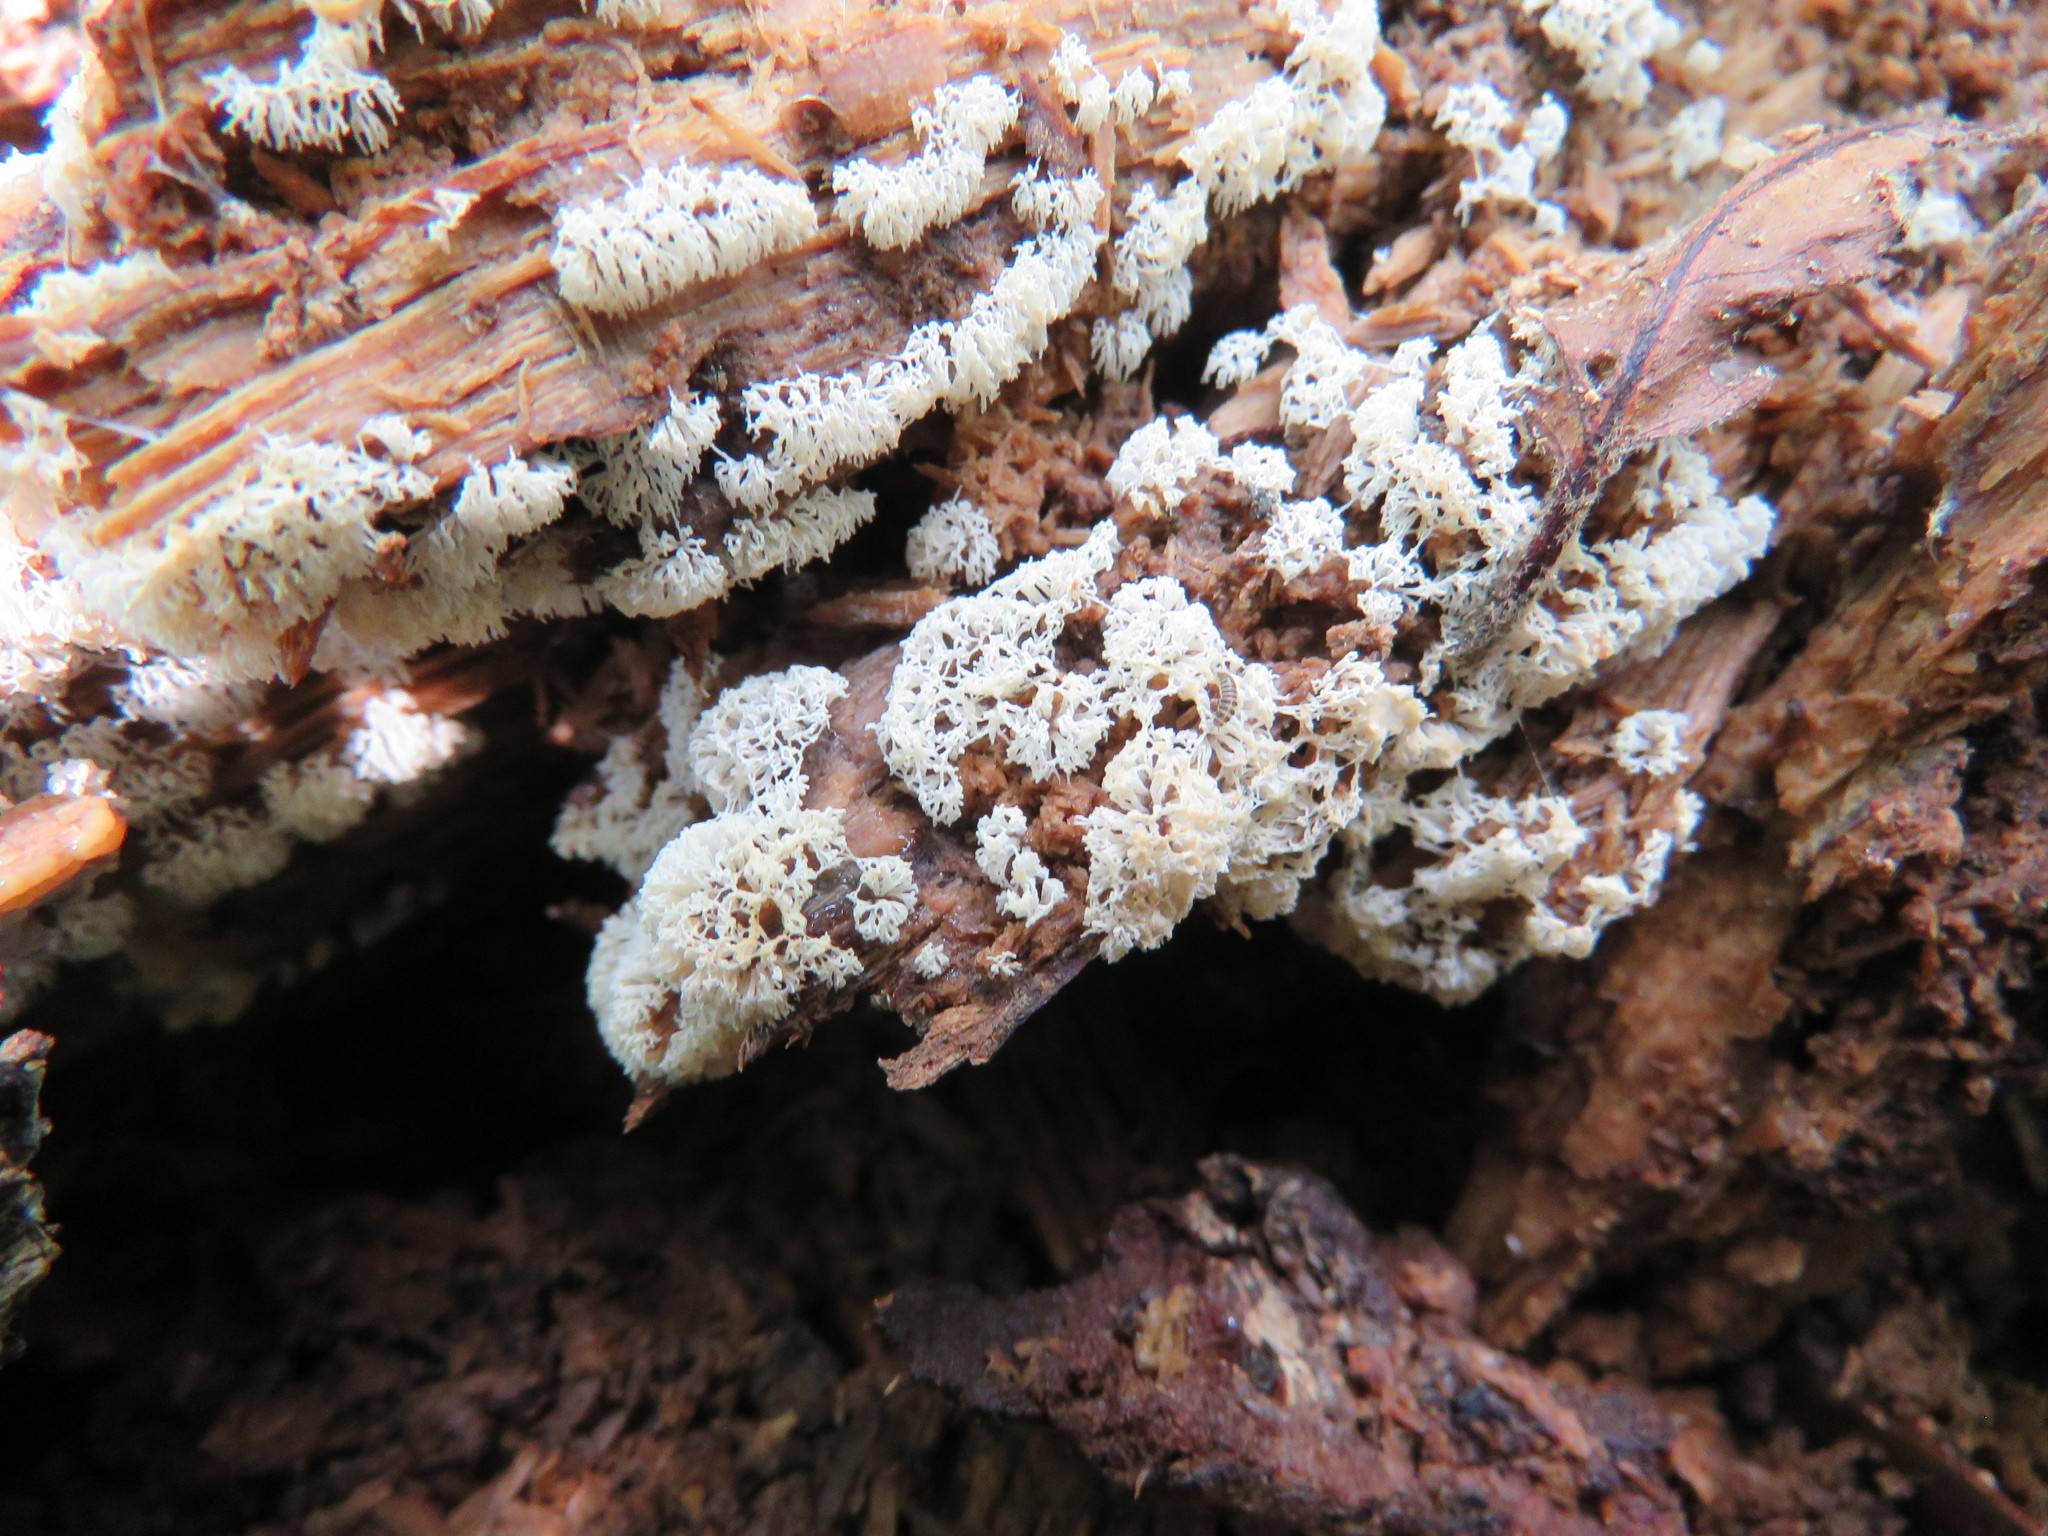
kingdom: Protozoa
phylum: Mycetozoa
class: Protosteliomycetes
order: Ceratiomyxales
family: Ceratiomyxaceae
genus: Ceratiomyxa
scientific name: Ceratiomyxa fruticulosa
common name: Honeycomb coral slime mold
